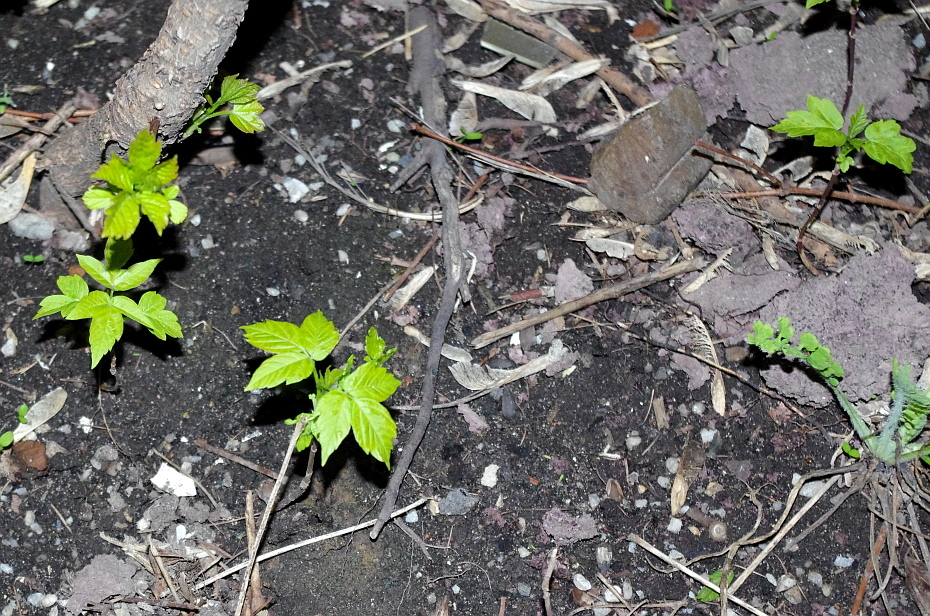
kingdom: Plantae
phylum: Tracheophyta
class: Magnoliopsida
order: Sapindales
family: Sapindaceae
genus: Acer
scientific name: Acer negundo
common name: Ashleaf maple
